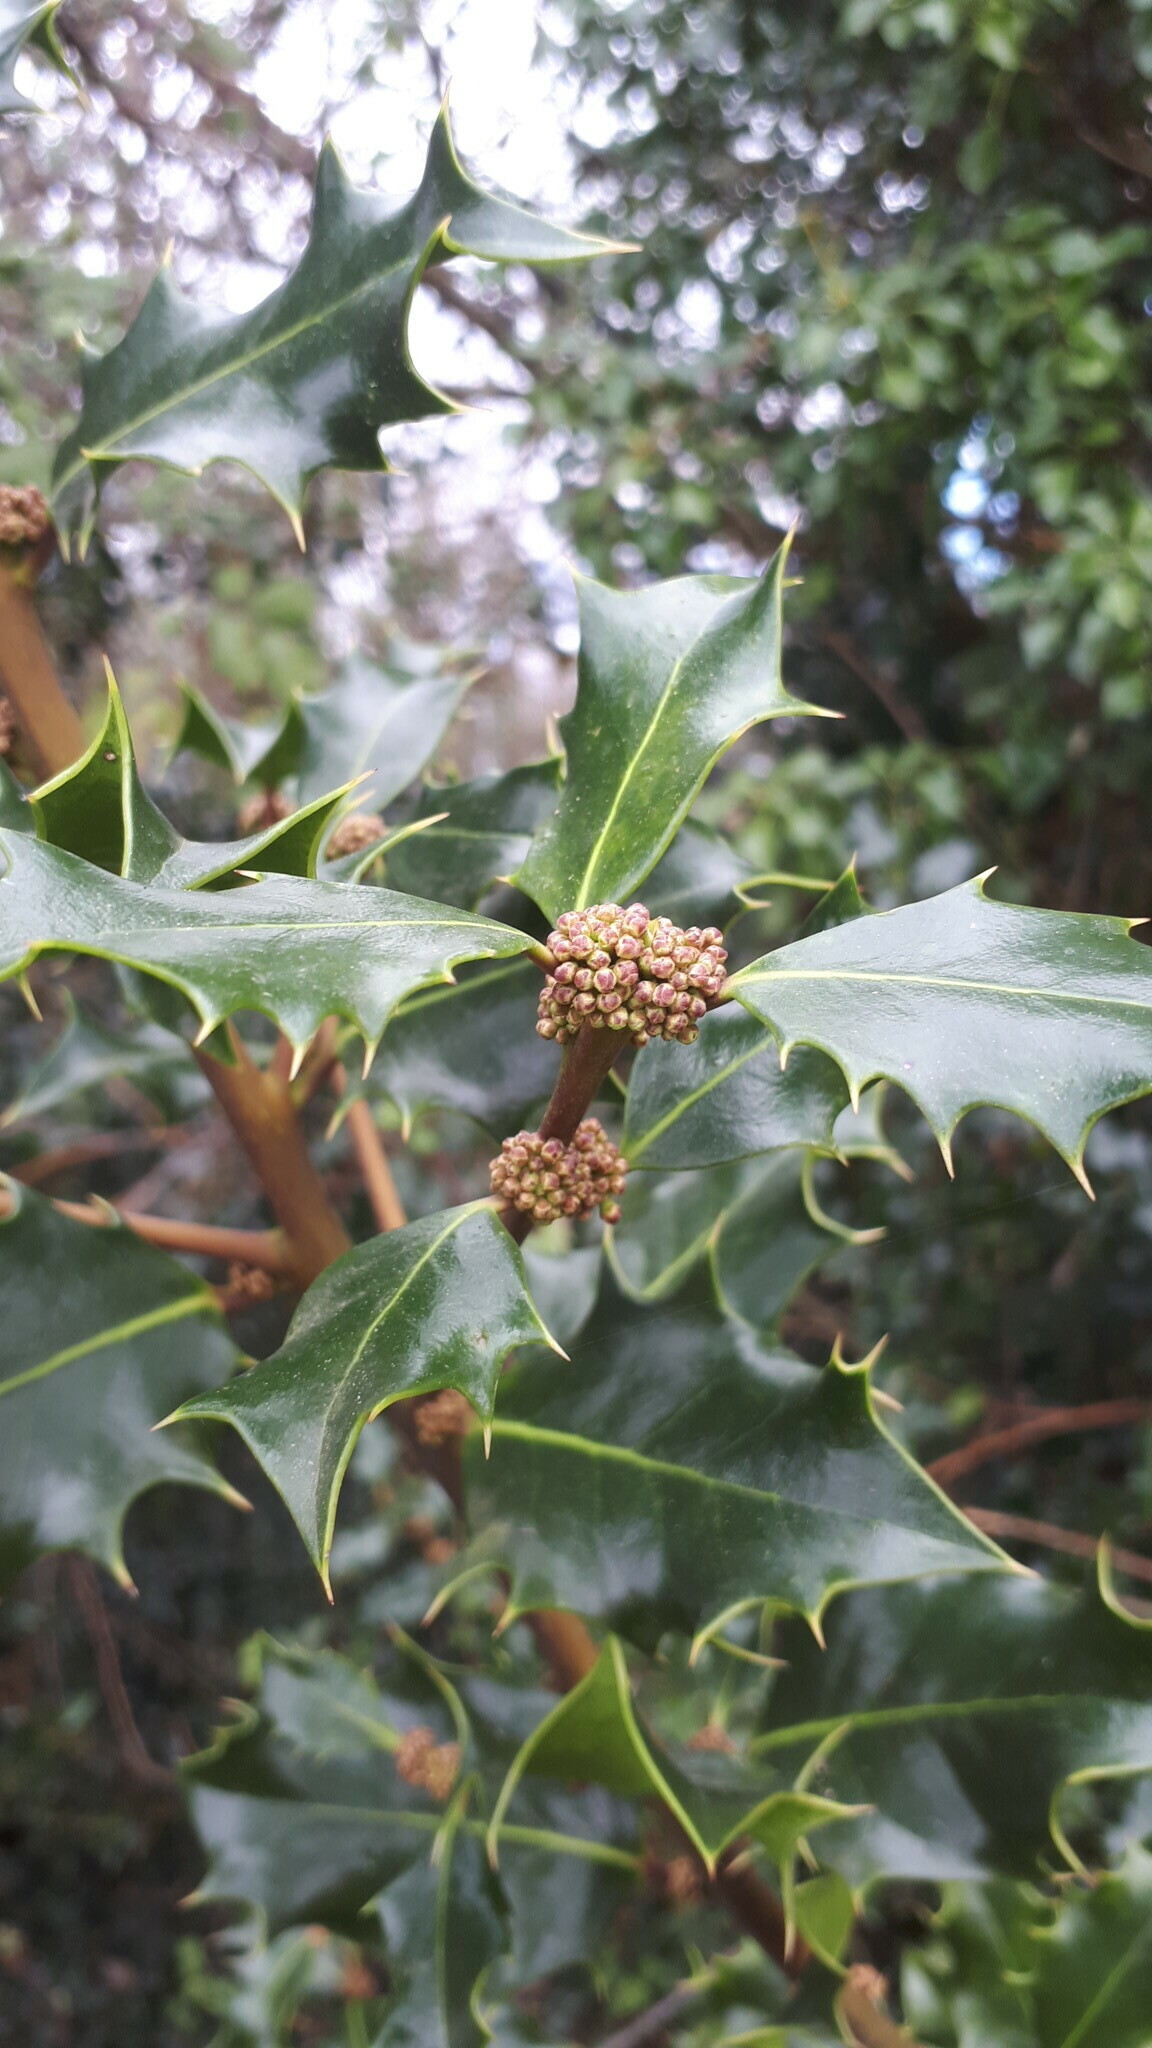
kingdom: Plantae
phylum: Tracheophyta
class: Magnoliopsida
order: Aquifoliales
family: Aquifoliaceae
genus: Ilex
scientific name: Ilex aquifolium
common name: English holly
